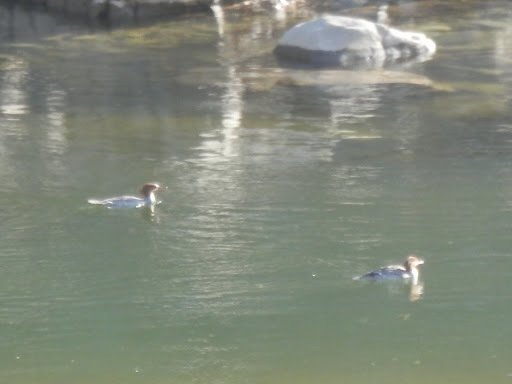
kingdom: Animalia
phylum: Chordata
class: Aves
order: Anseriformes
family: Anatidae
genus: Mergus
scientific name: Mergus merganser
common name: Common merganser
